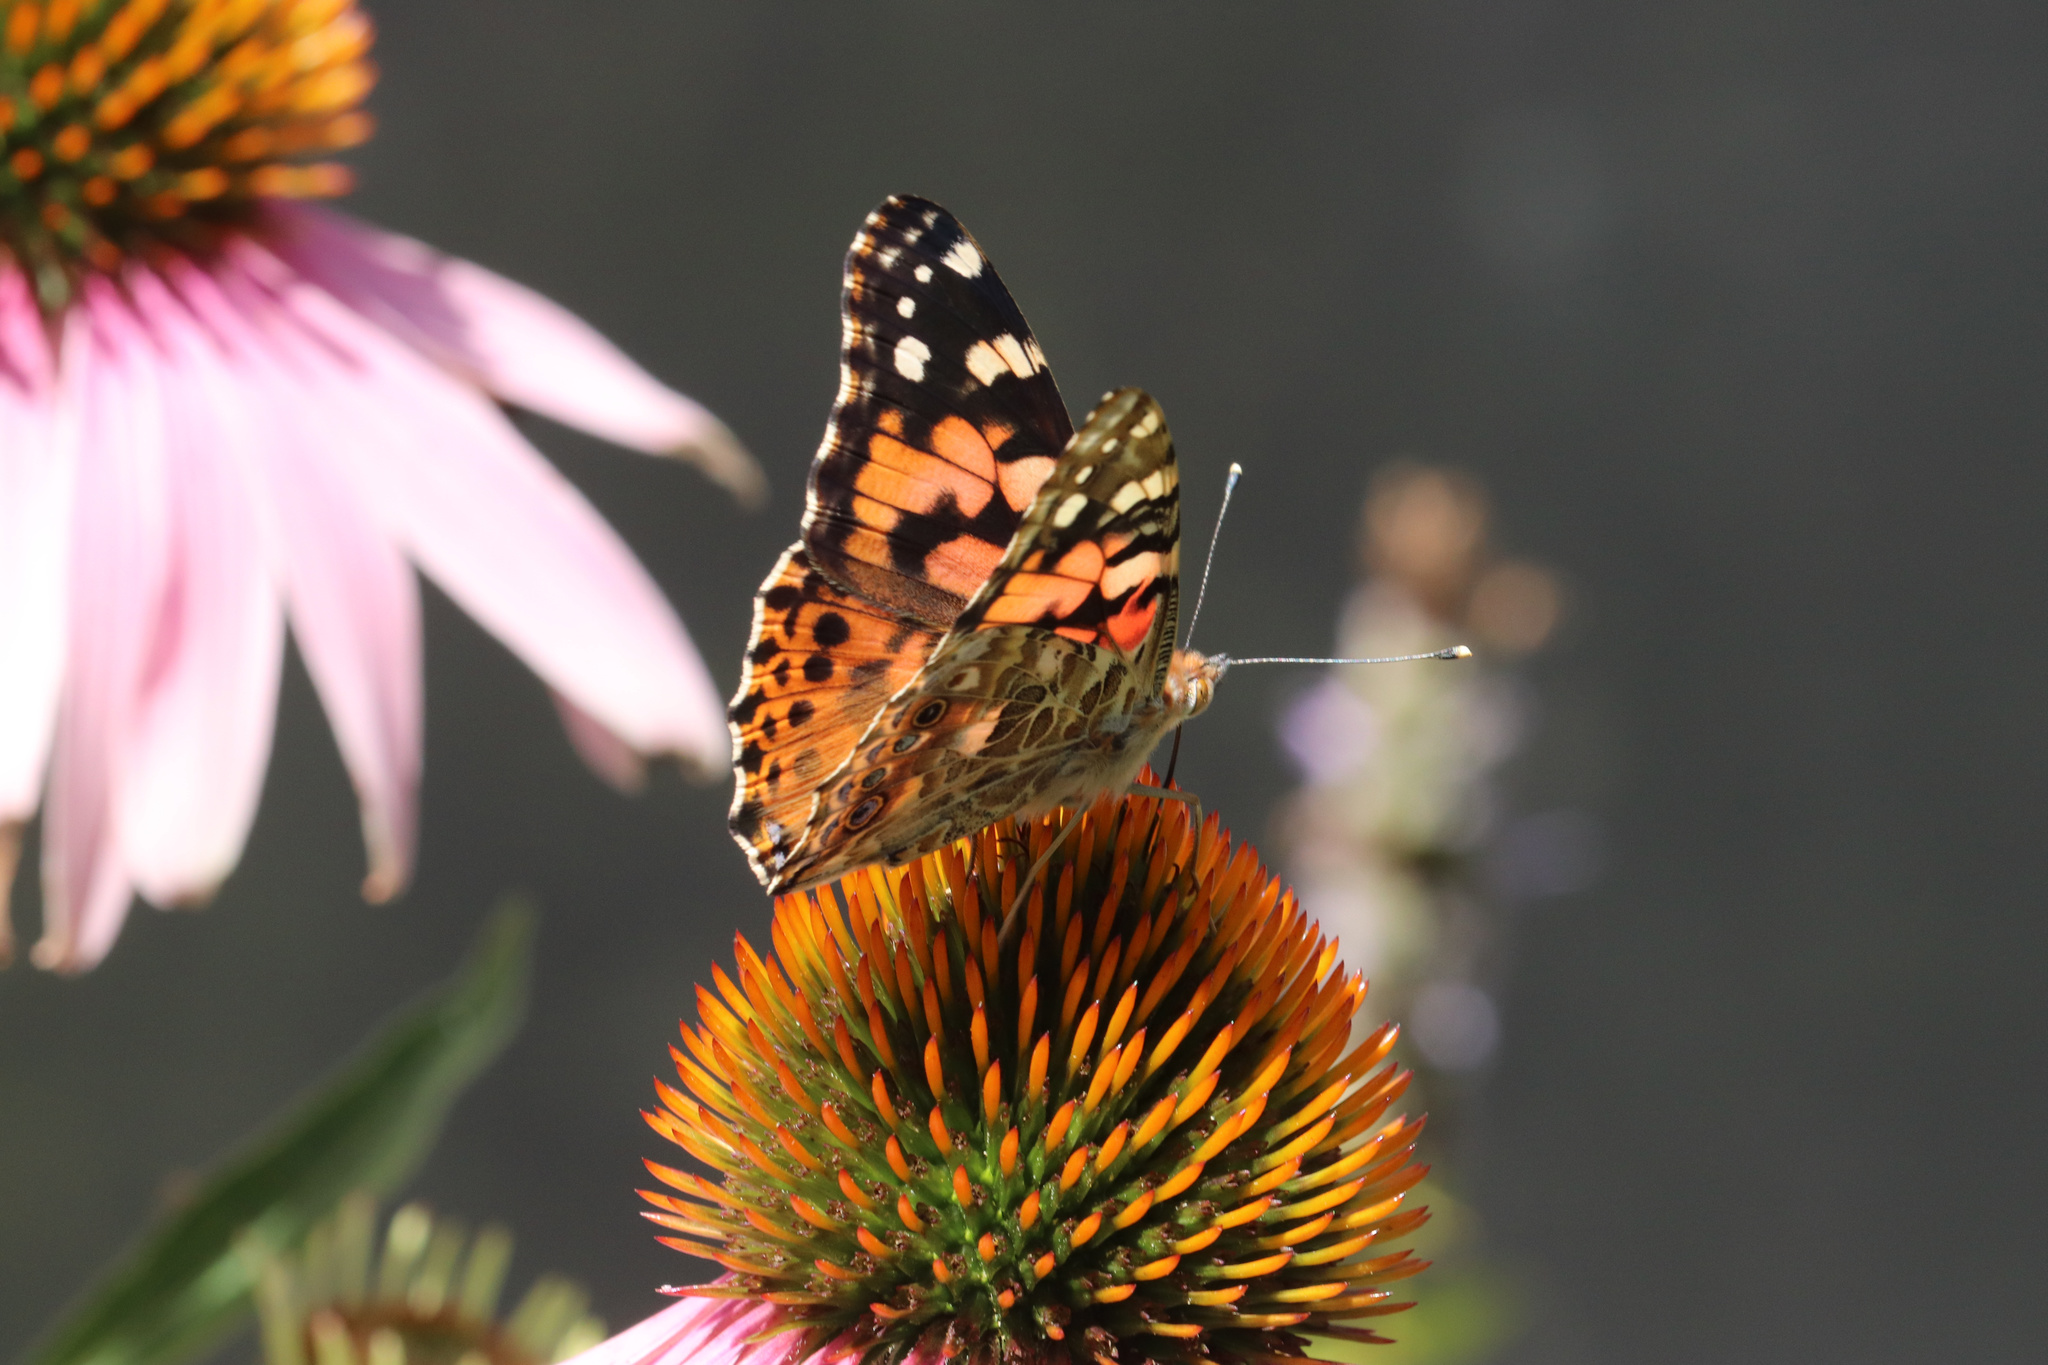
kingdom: Animalia
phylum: Arthropoda
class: Insecta
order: Lepidoptera
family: Nymphalidae
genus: Vanessa
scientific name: Vanessa cardui
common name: Painted lady
